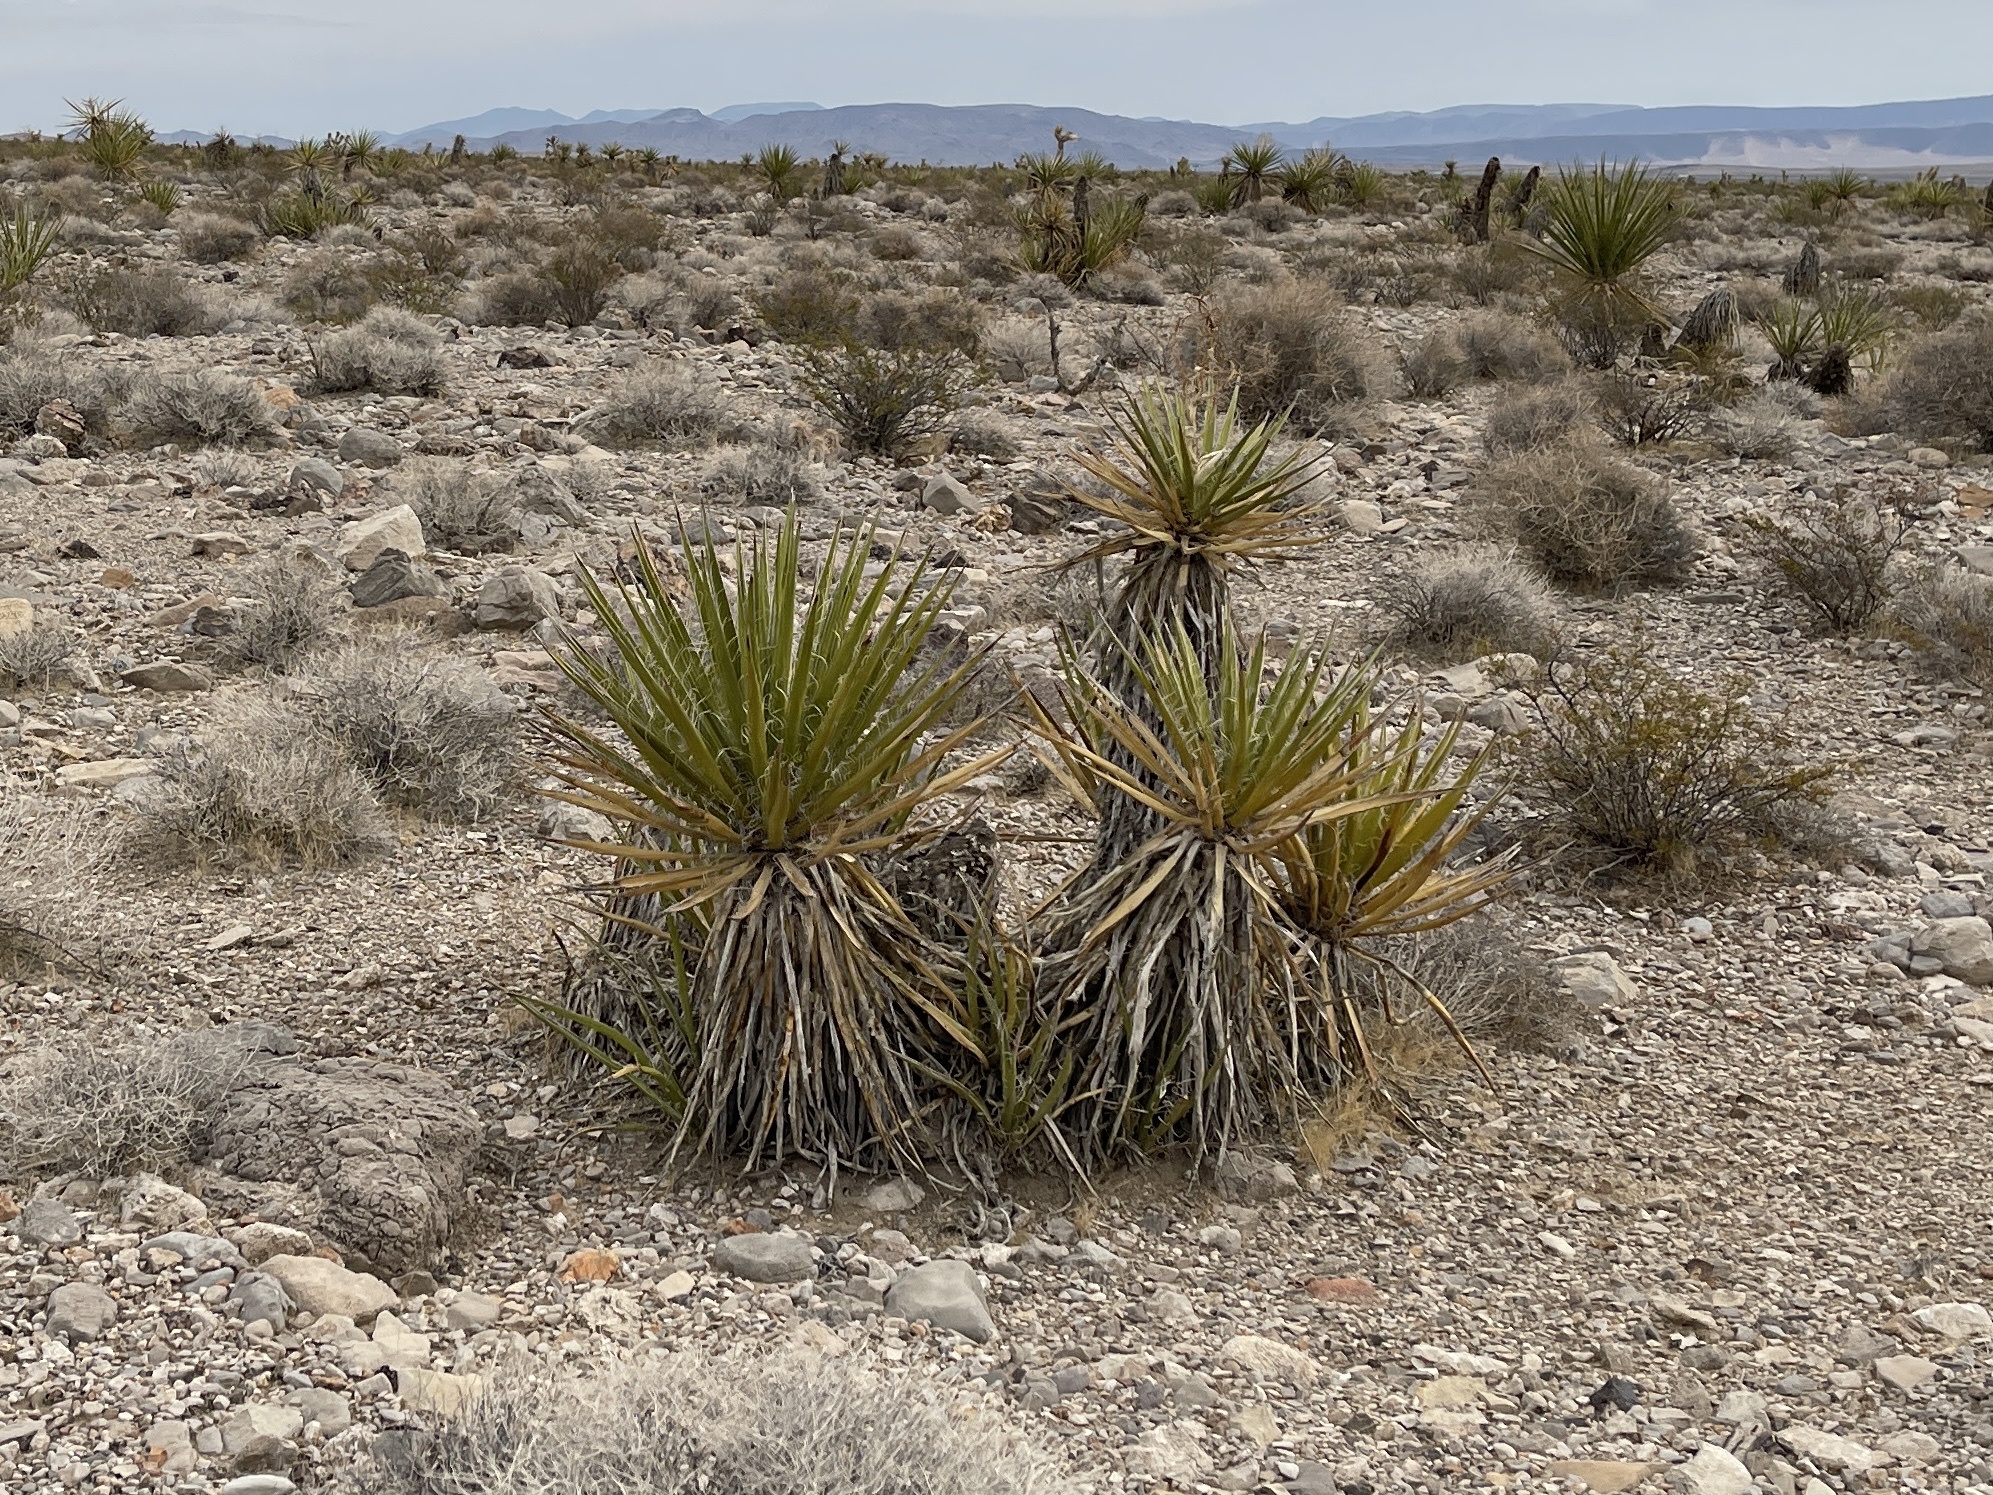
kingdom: Plantae
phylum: Tracheophyta
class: Liliopsida
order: Asparagales
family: Asparagaceae
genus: Yucca
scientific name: Yucca schidigera
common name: Mojave yucca
